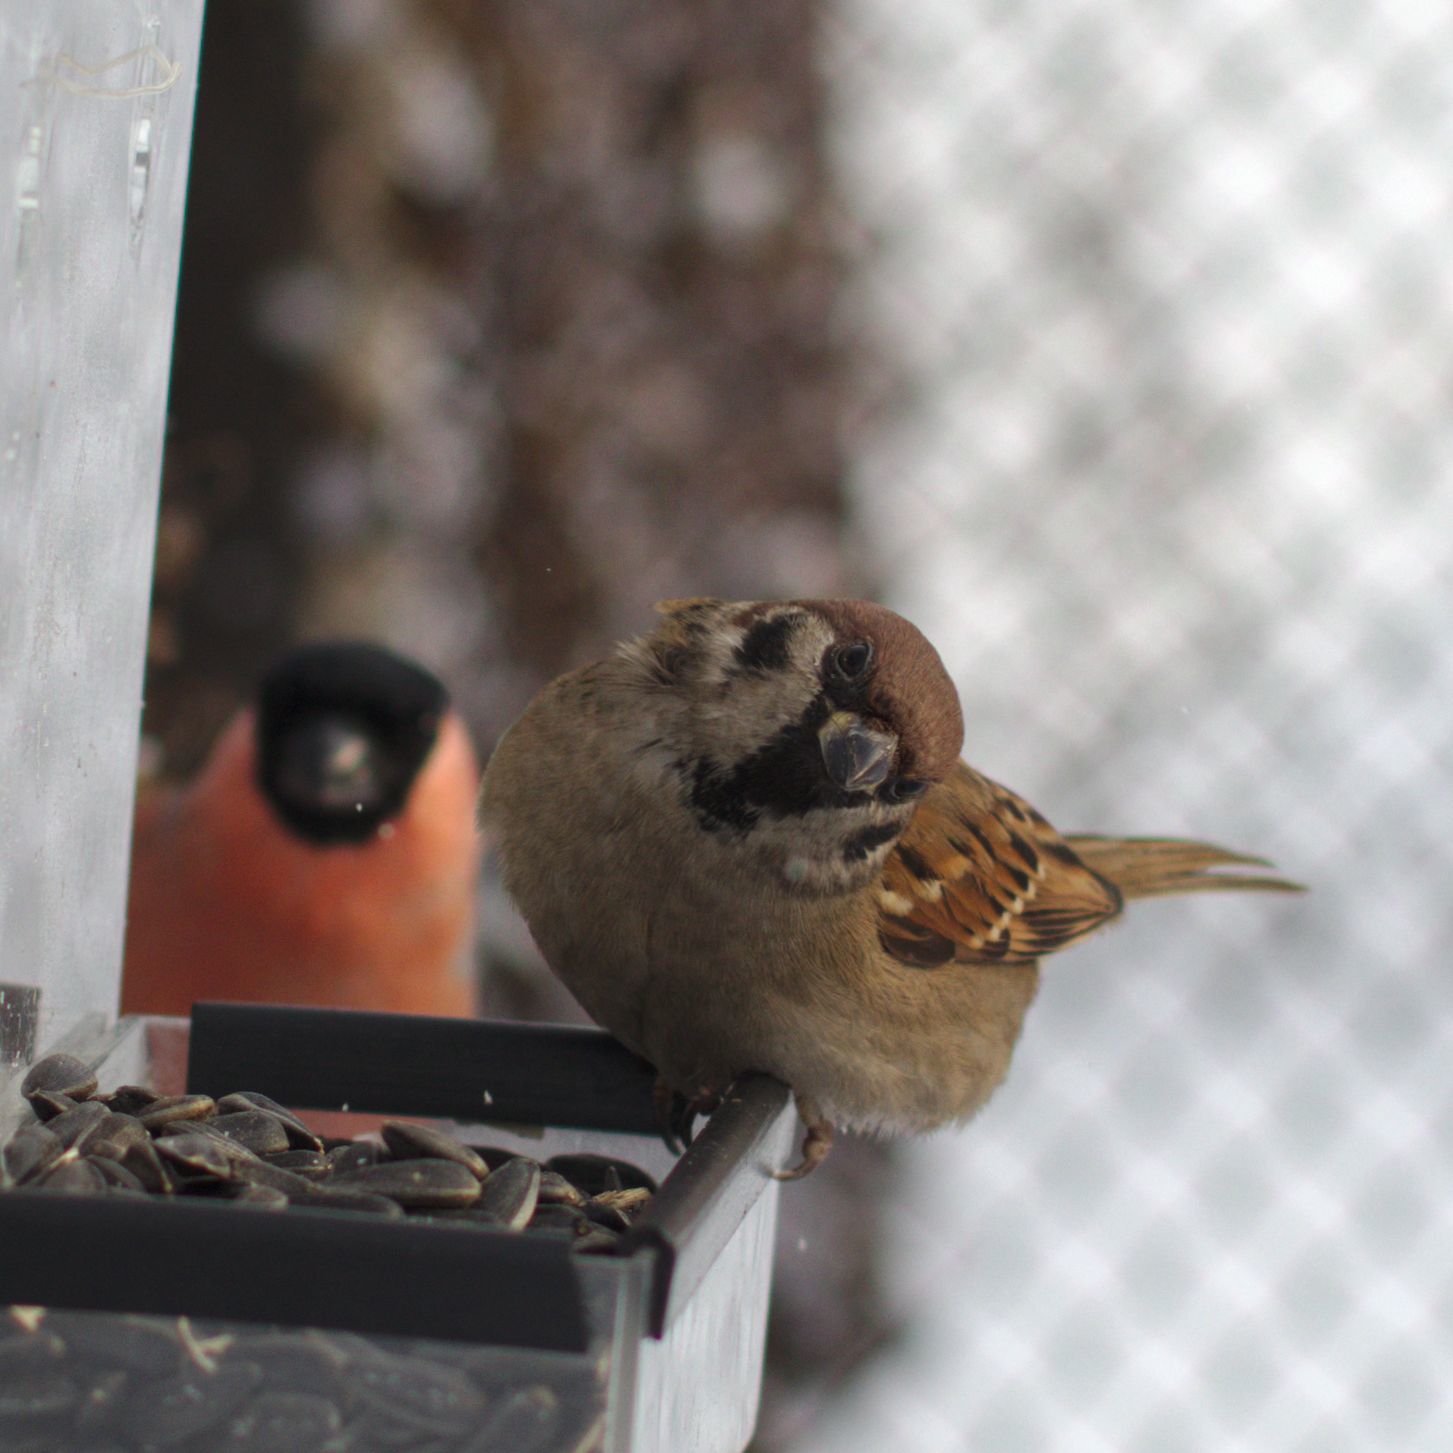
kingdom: Animalia
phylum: Chordata
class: Aves
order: Passeriformes
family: Passeridae
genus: Passer
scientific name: Passer montanus
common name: Eurasian tree sparrow
